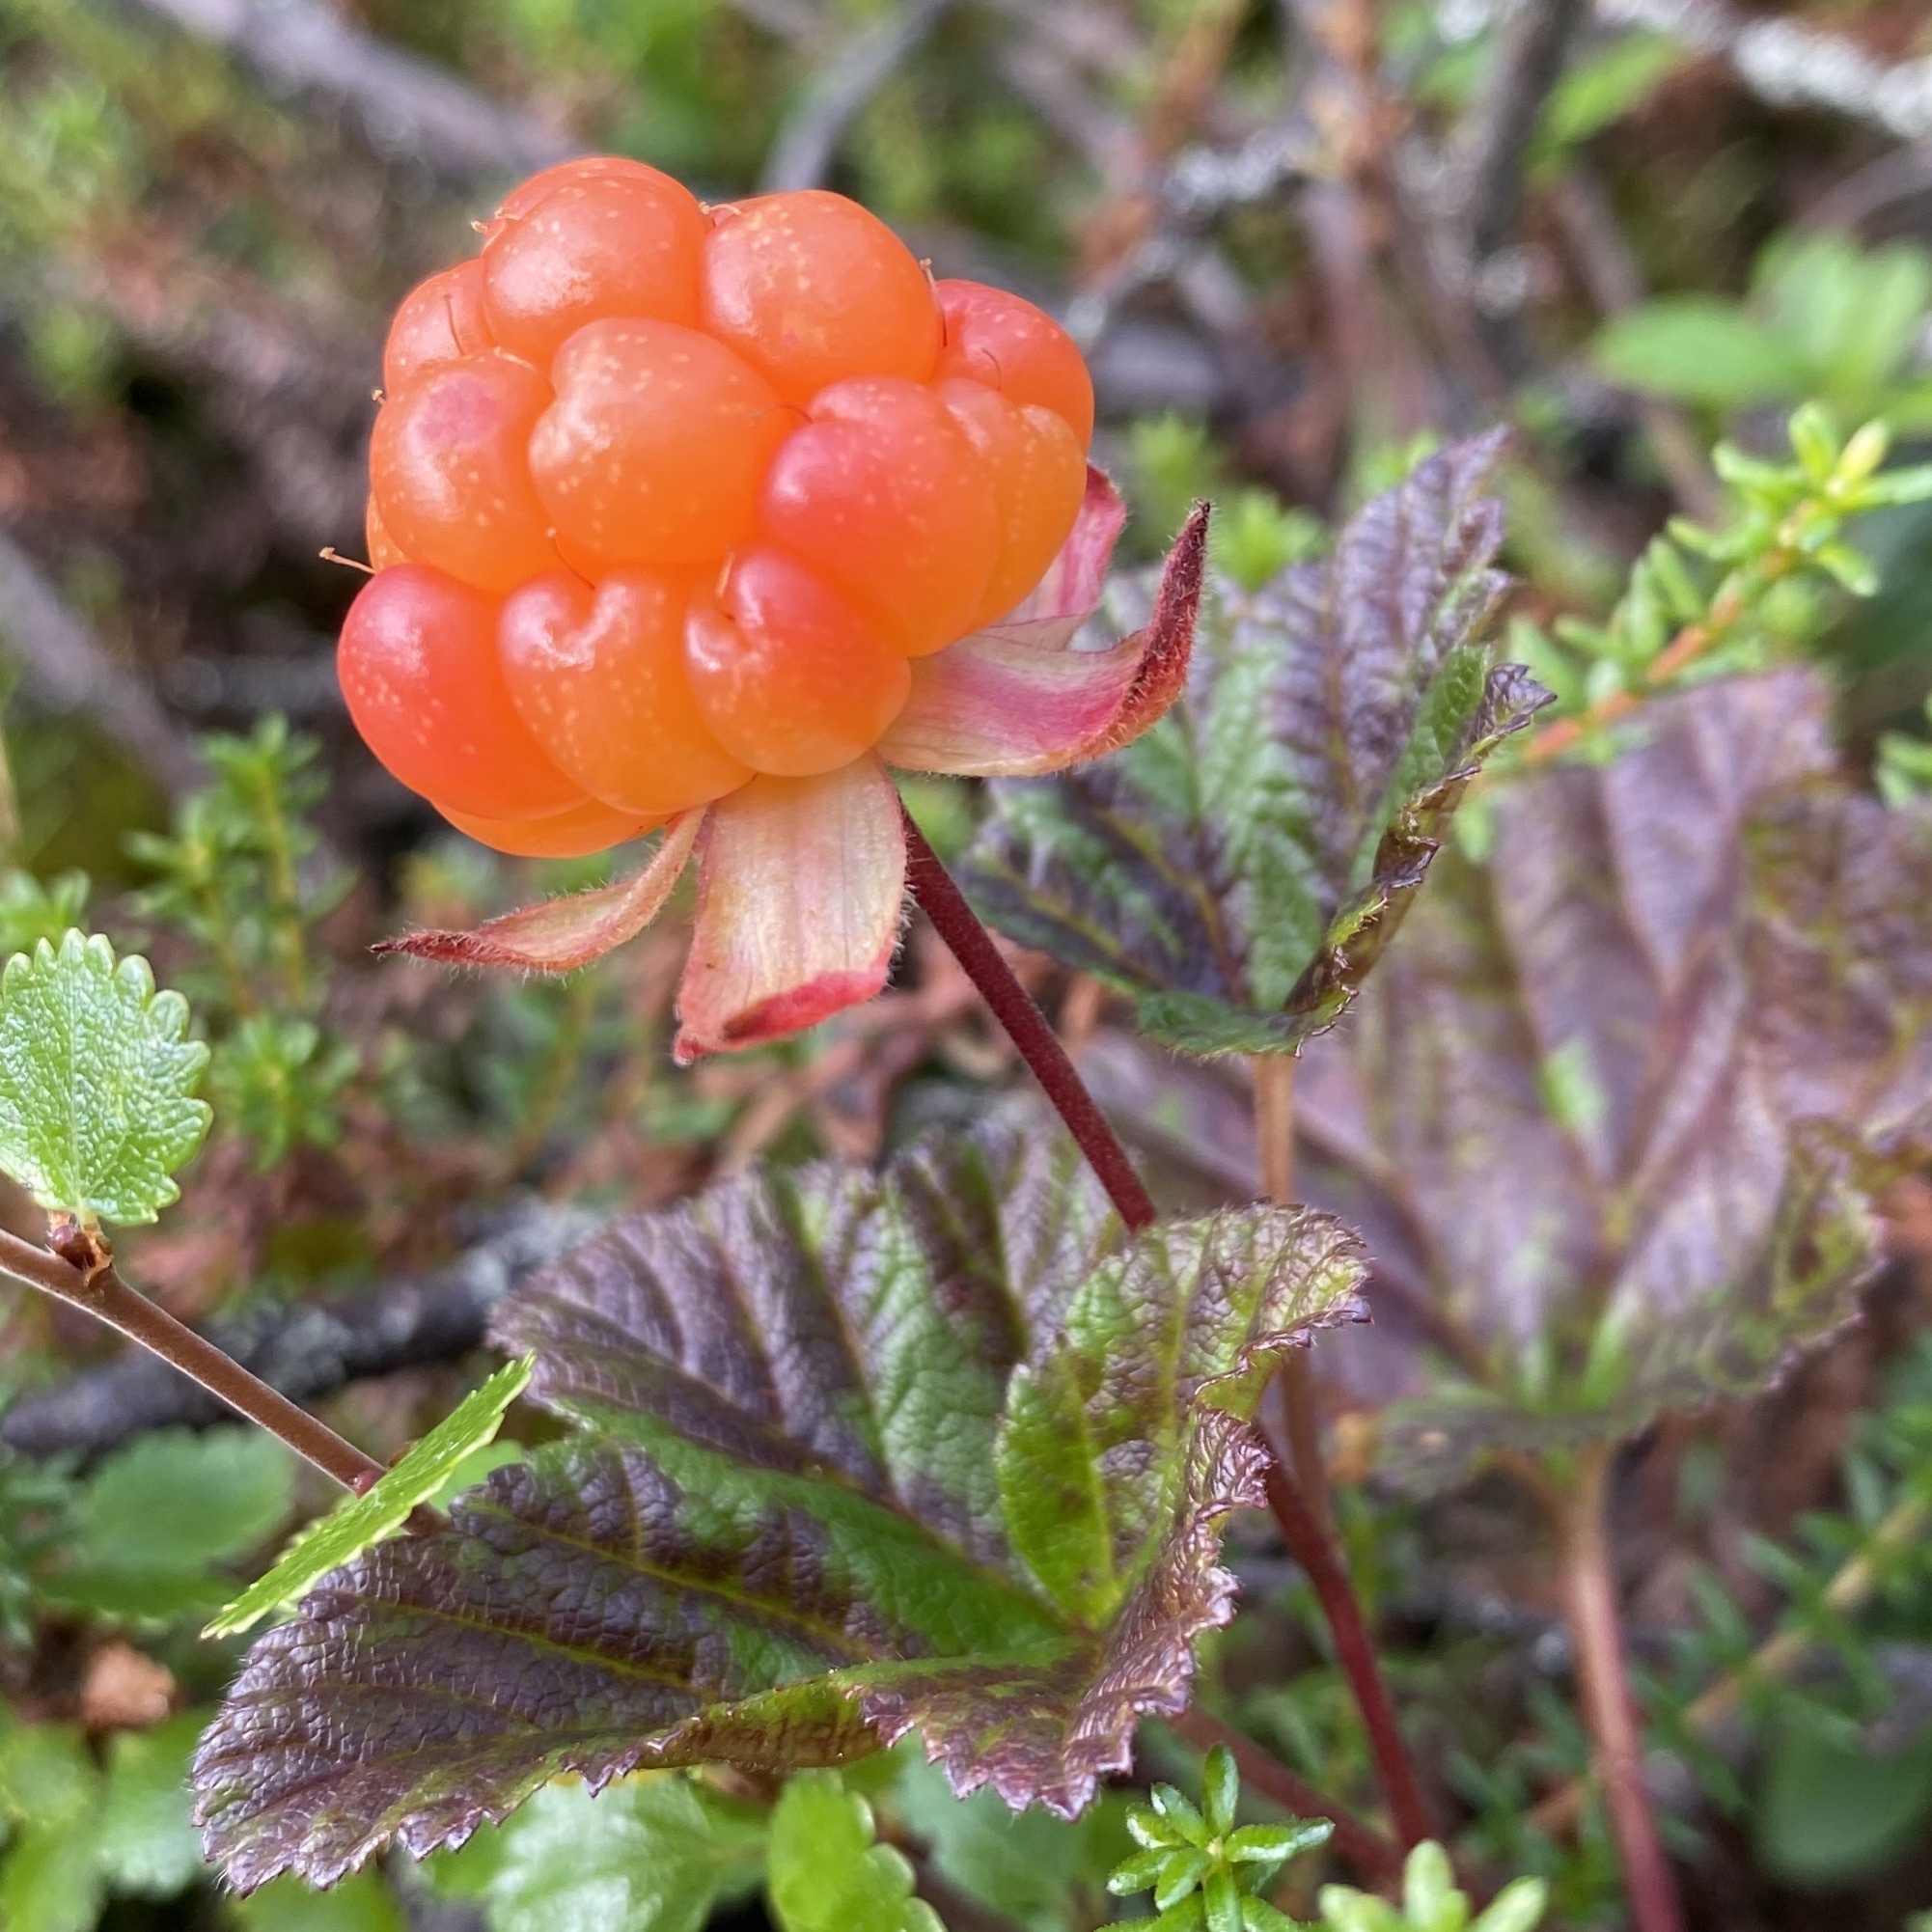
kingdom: Plantae
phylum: Tracheophyta
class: Magnoliopsida
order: Rosales
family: Rosaceae
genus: Rubus
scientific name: Rubus chamaemorus
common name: Cloudberry
